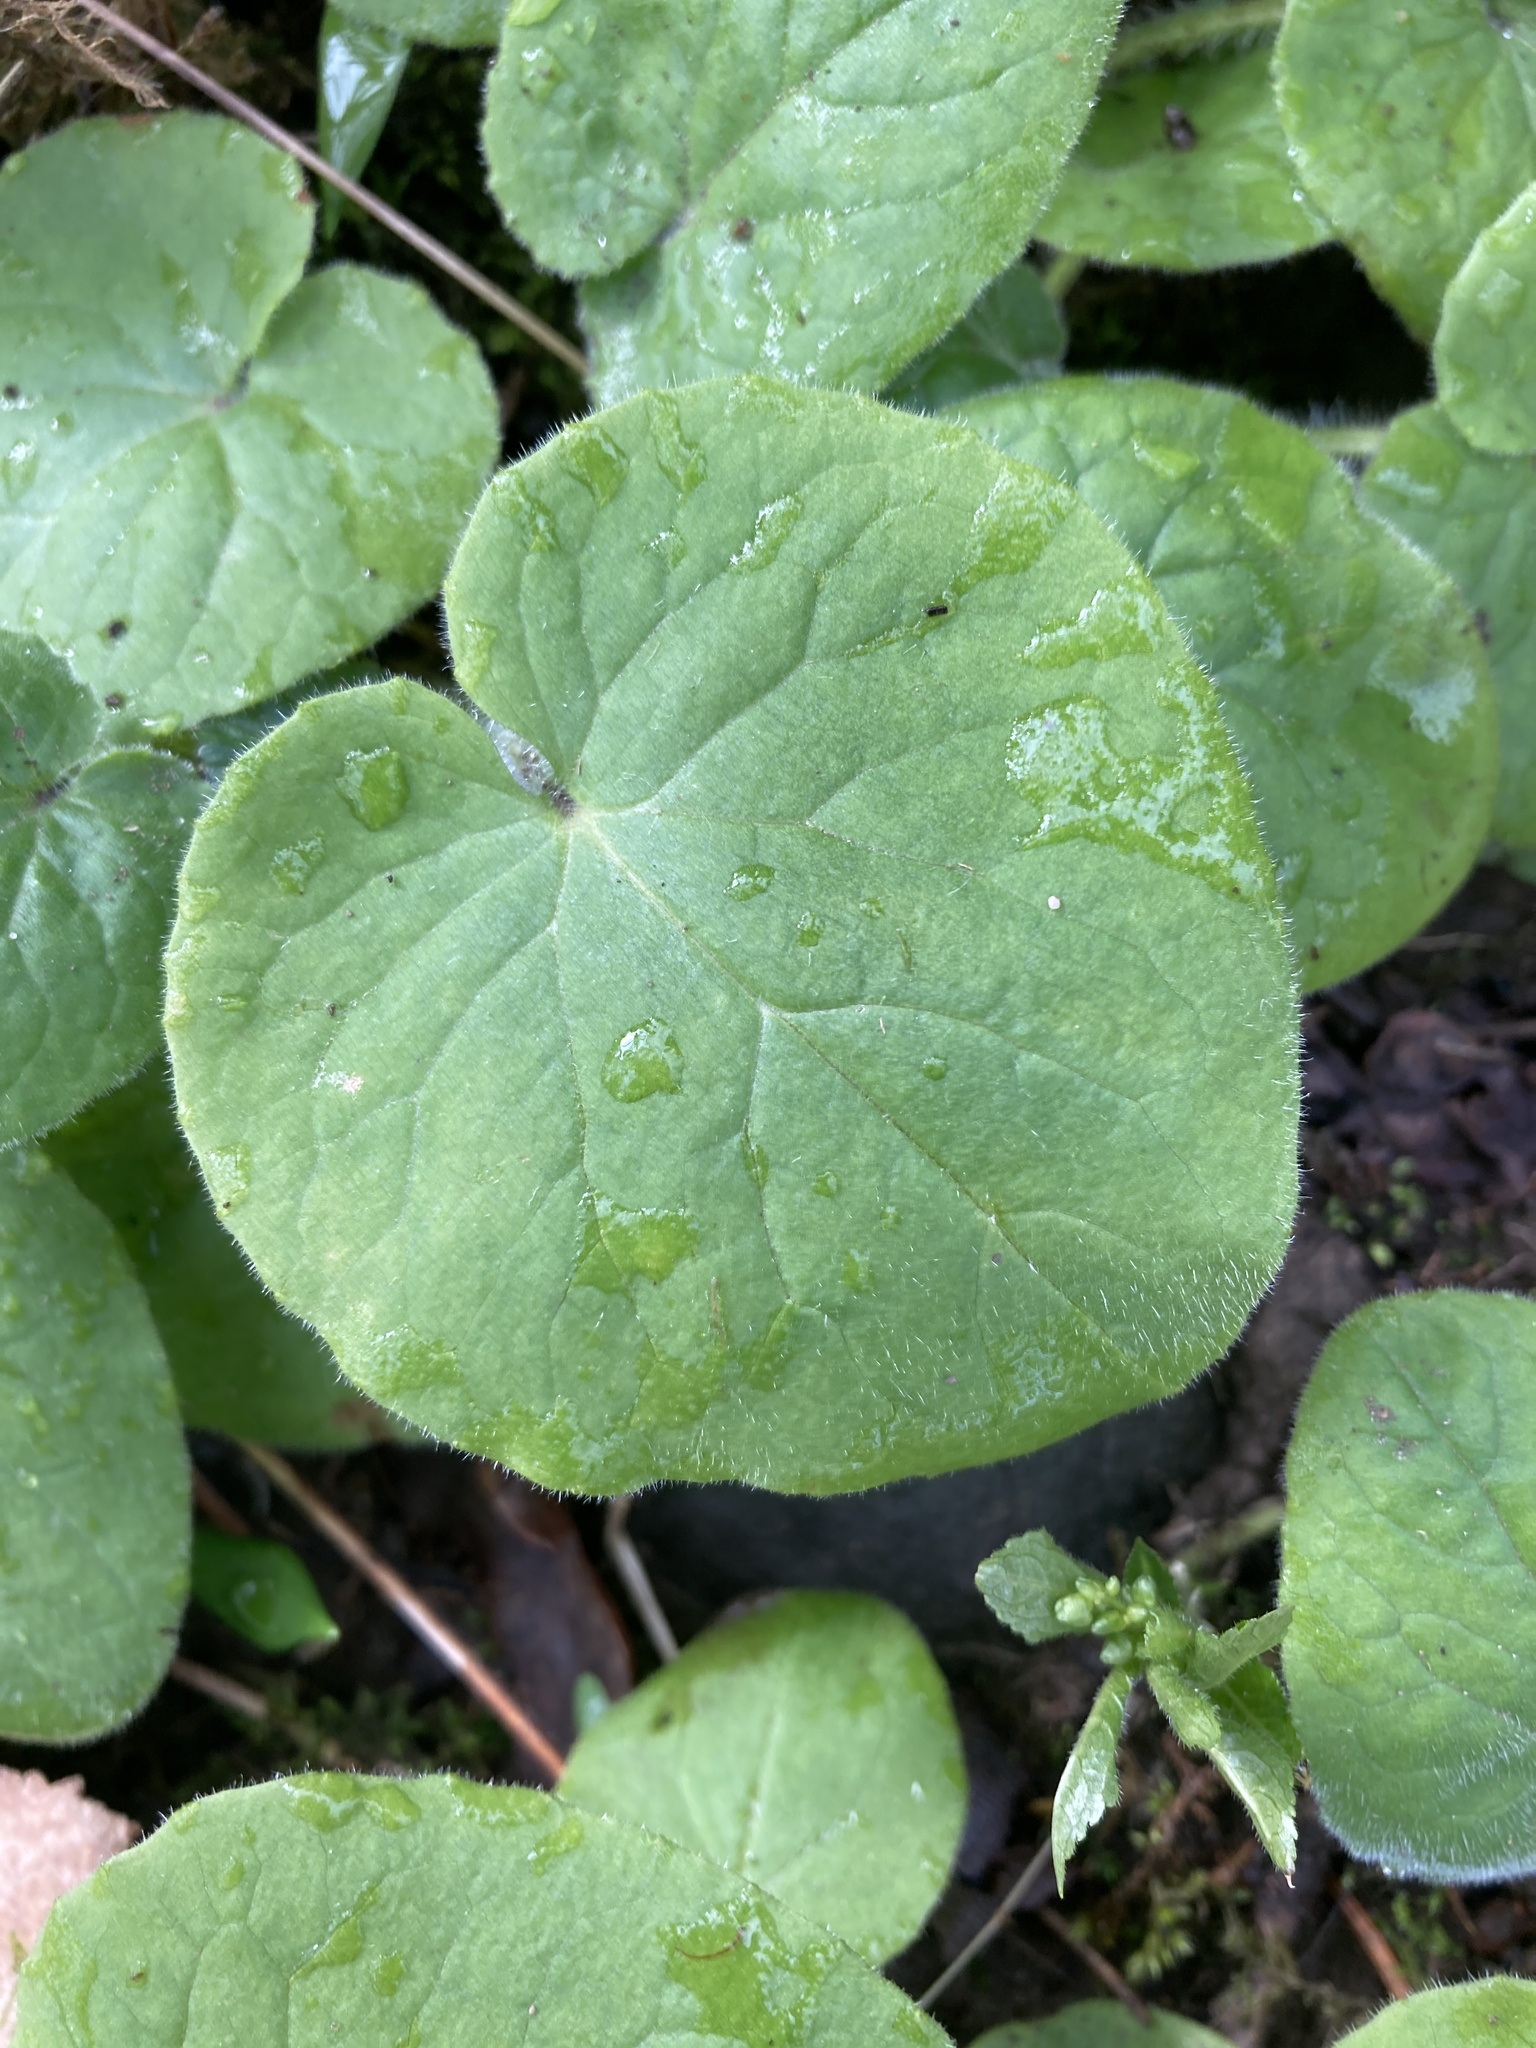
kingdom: Plantae
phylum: Tracheophyta
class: Magnoliopsida
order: Asterales
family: Asteraceae
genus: Doronicum
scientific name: Doronicum pardalianches
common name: Leopard's-bane
